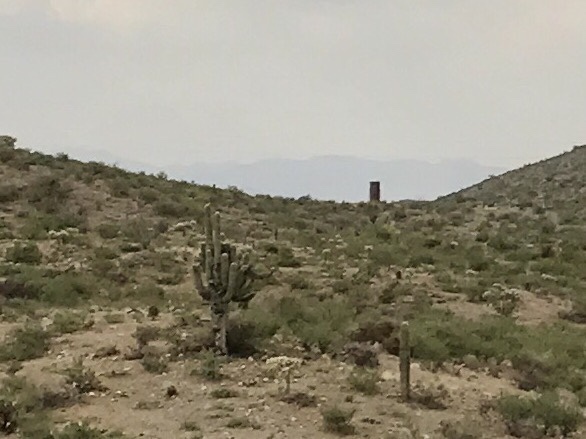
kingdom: Plantae
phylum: Tracheophyta
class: Magnoliopsida
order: Caryophyllales
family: Cactaceae
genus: Carnegiea
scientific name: Carnegiea gigantea
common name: Saguaro
